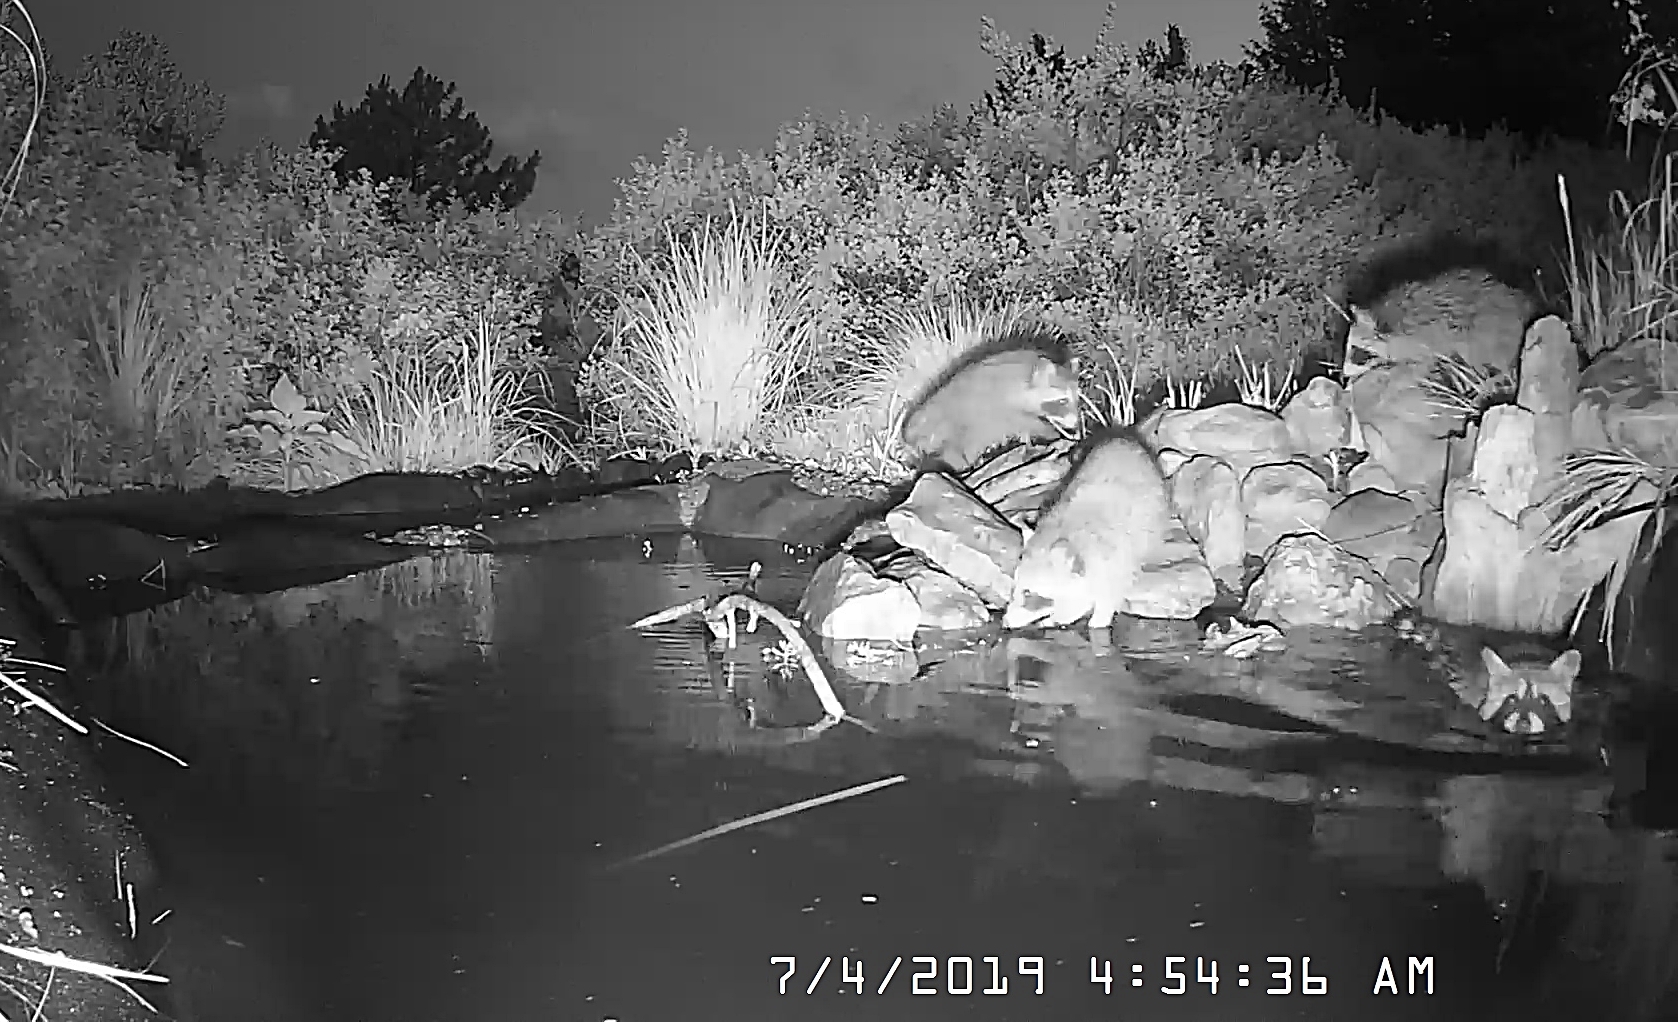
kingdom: Animalia
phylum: Chordata
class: Mammalia
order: Carnivora
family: Procyonidae
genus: Procyon
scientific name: Procyon lotor
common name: Raccoon
